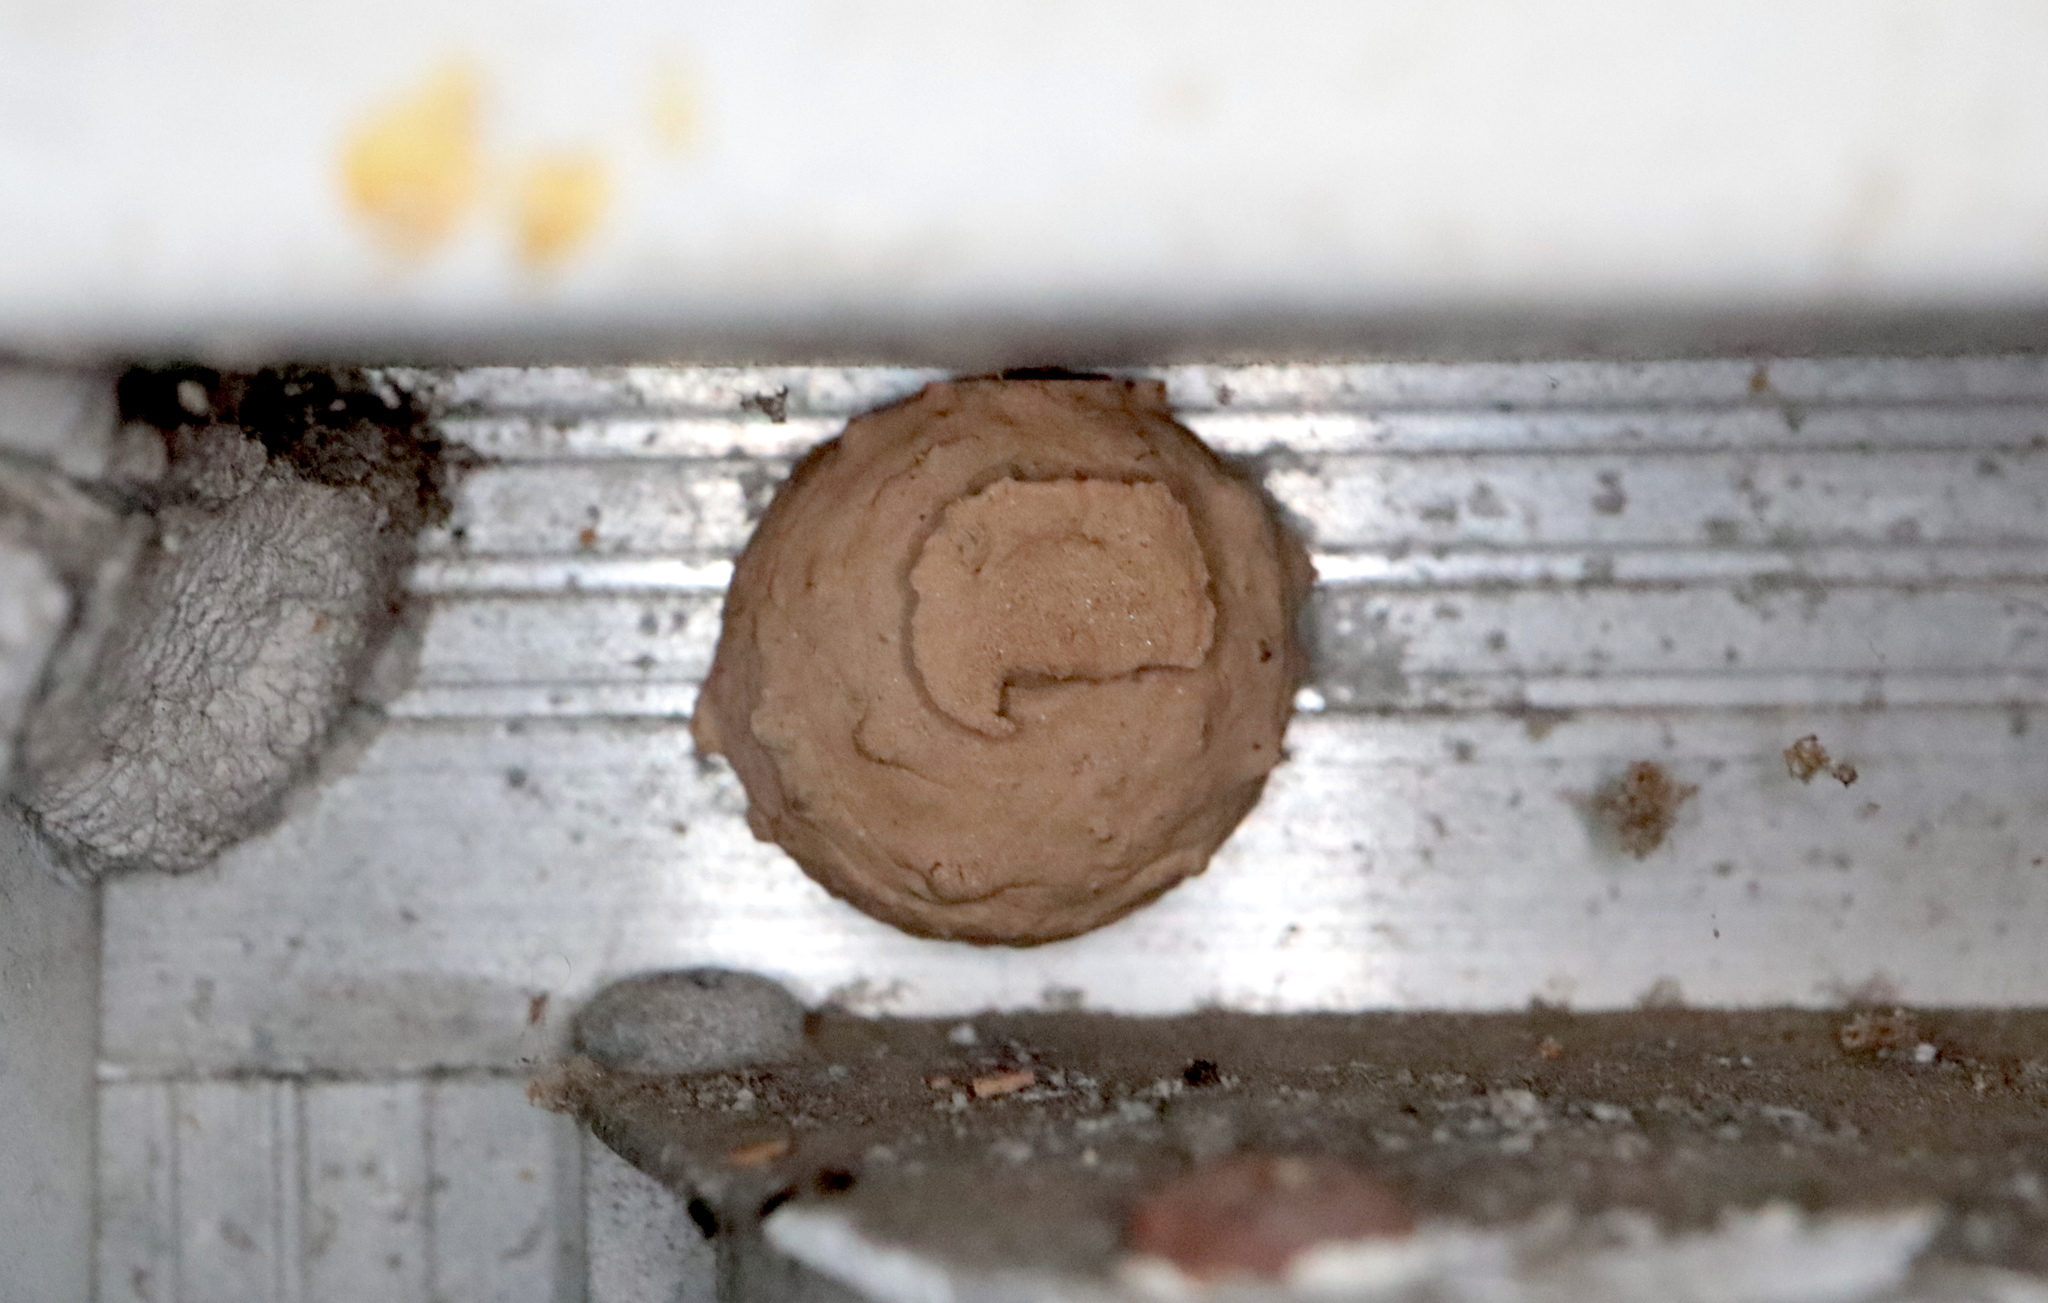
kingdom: Animalia
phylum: Arthropoda
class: Insecta
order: Hymenoptera
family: Vespidae
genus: Eumenes
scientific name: Eumenes
